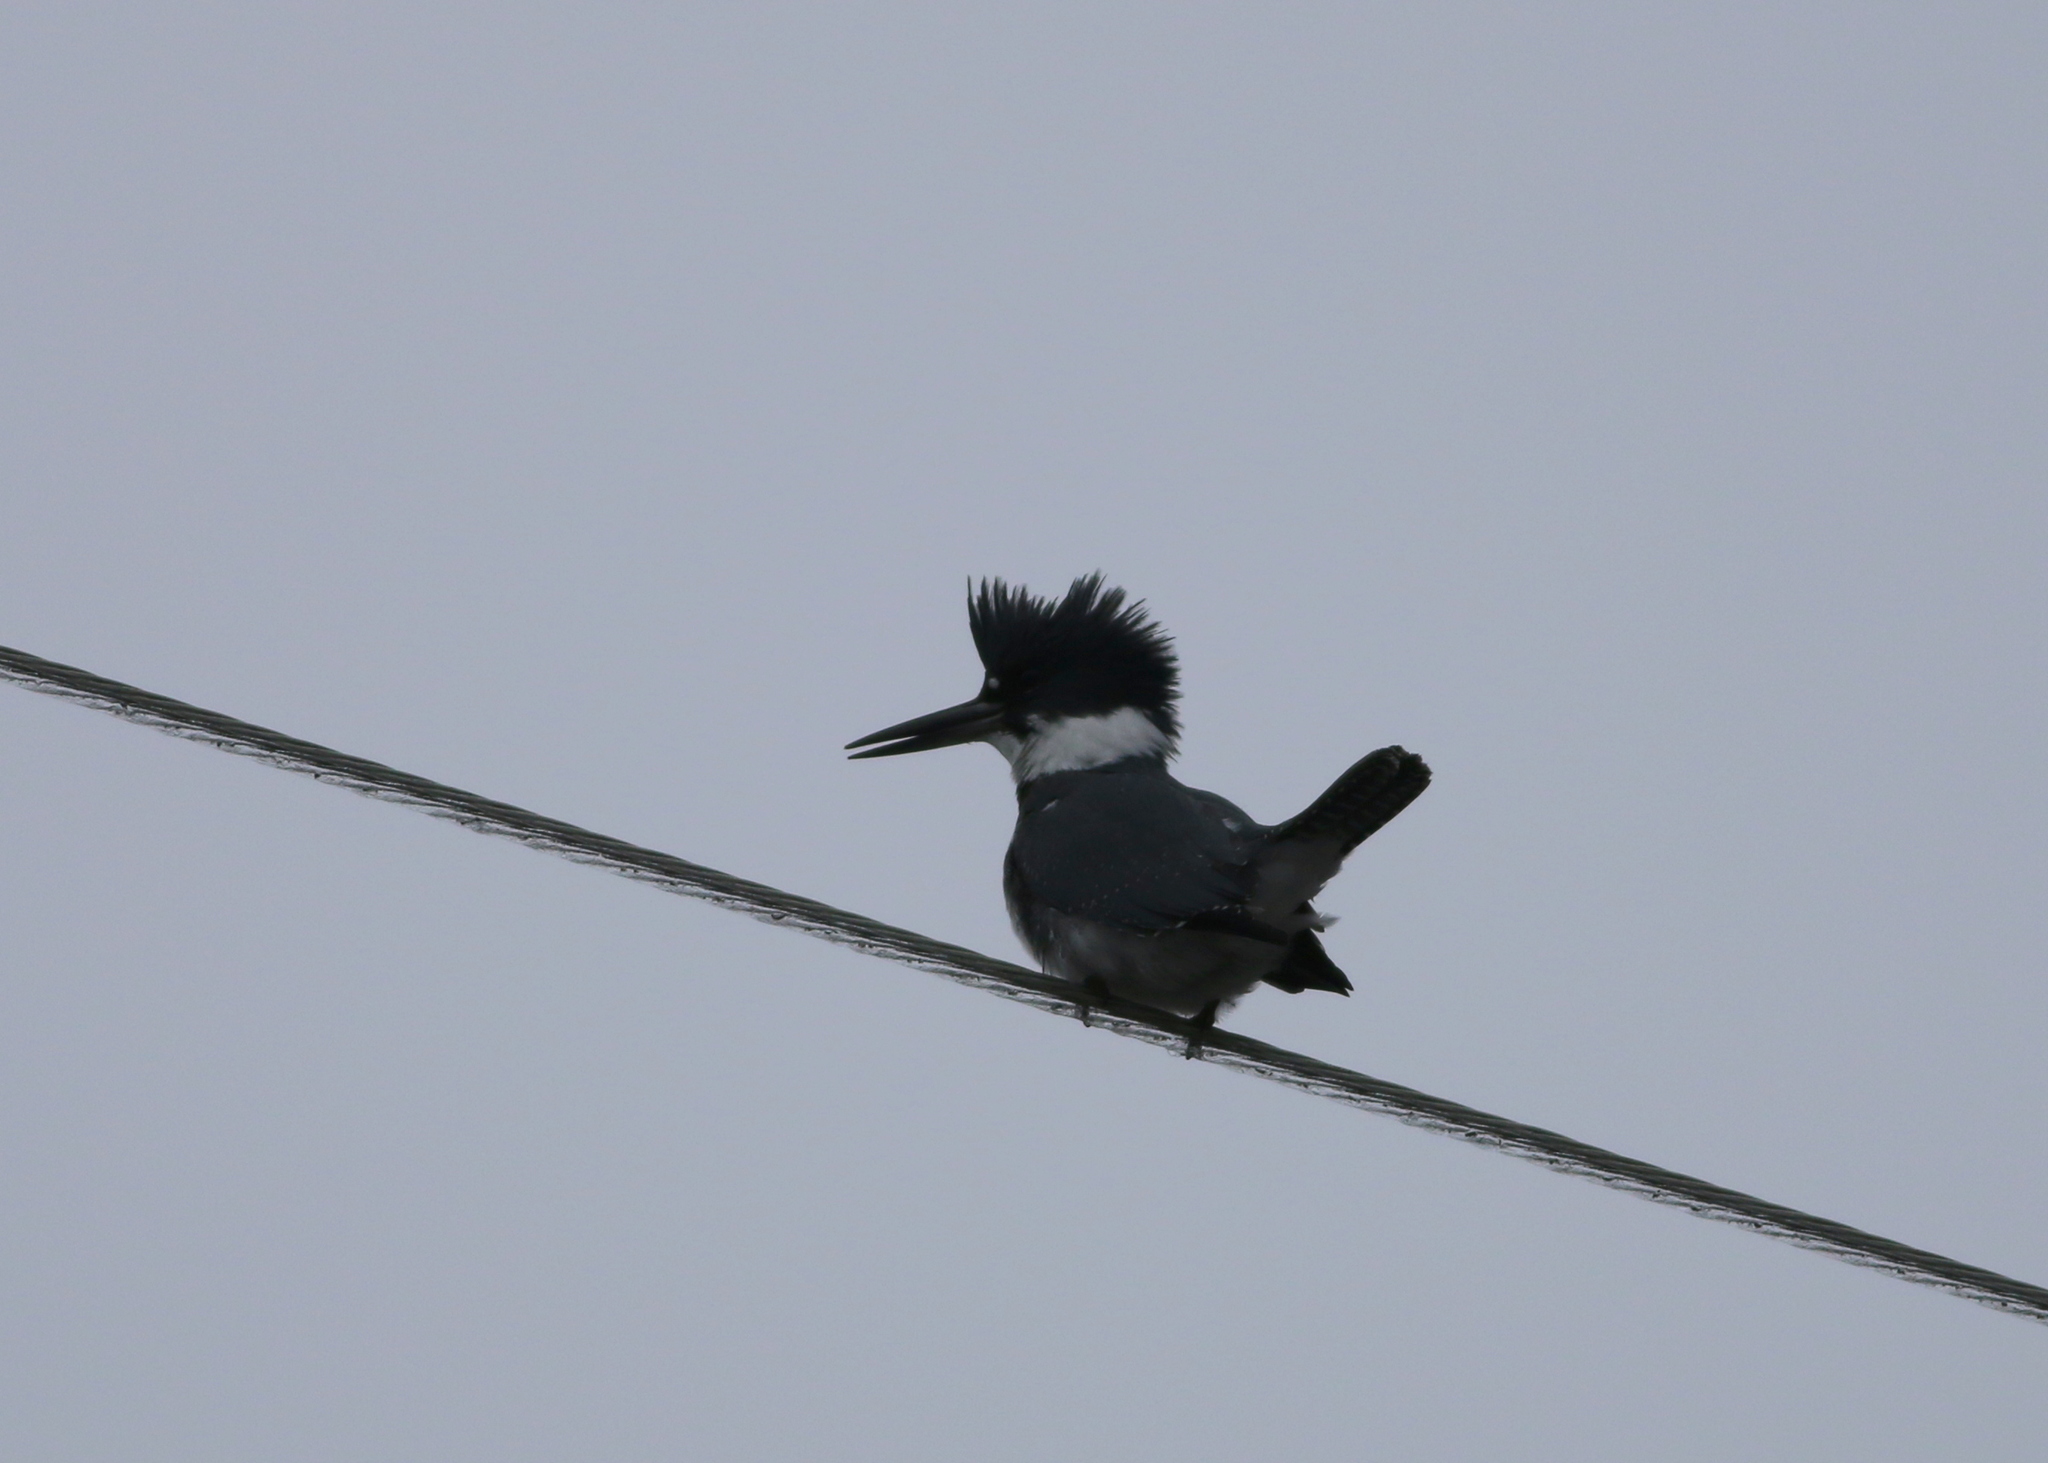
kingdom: Animalia
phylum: Chordata
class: Aves
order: Coraciiformes
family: Alcedinidae
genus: Megaceryle
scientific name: Megaceryle alcyon
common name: Belted kingfisher
